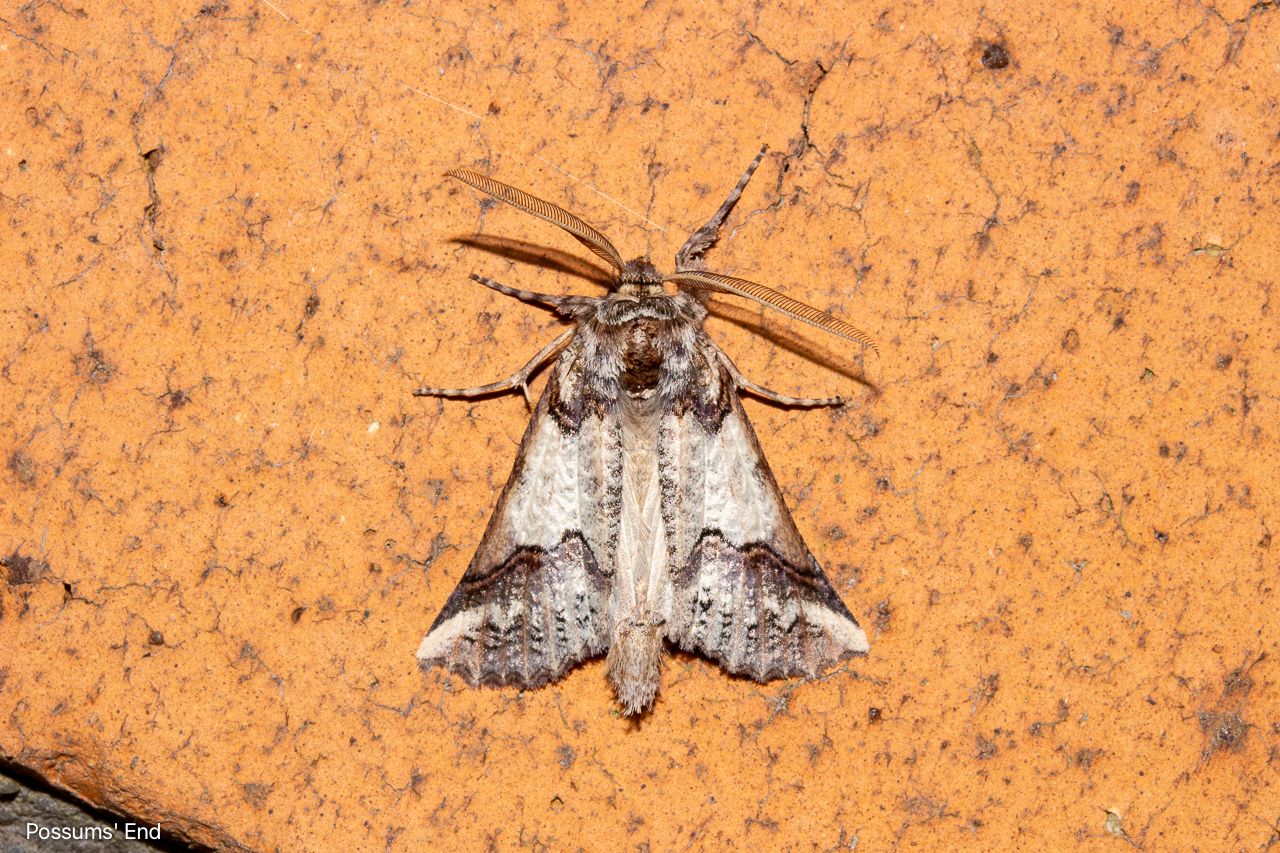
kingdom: Animalia
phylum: Arthropoda
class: Insecta
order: Lepidoptera
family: Geometridae
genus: Declana
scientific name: Declana
